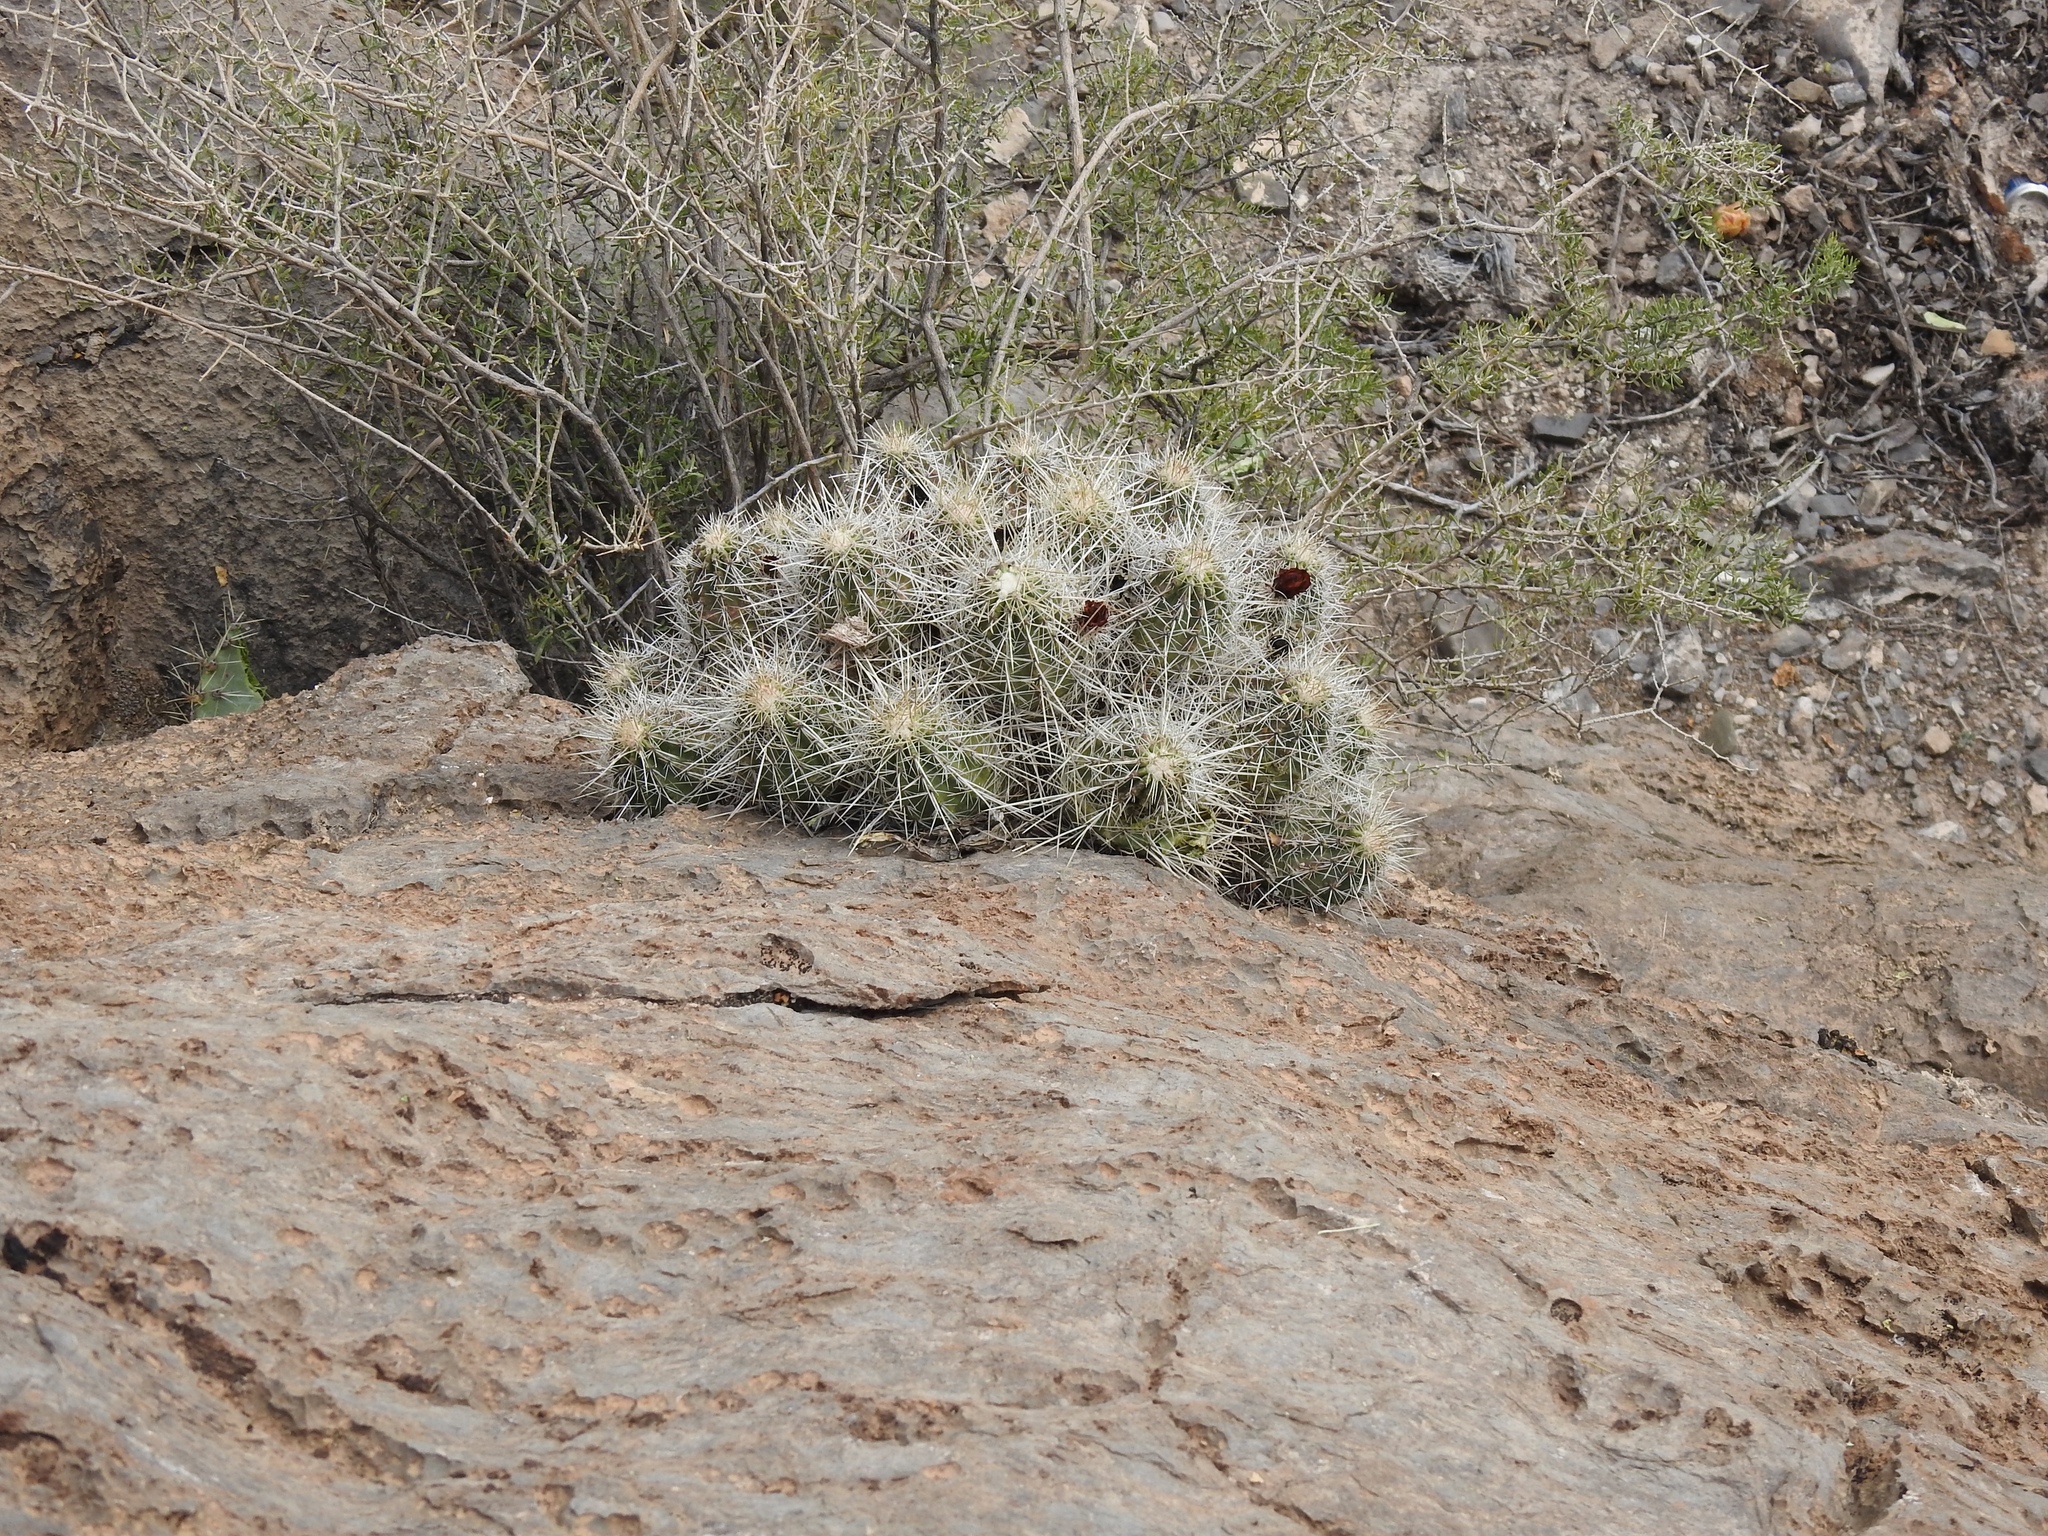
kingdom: Plantae
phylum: Tracheophyta
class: Magnoliopsida
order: Caryophyllales
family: Cactaceae
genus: Echinocereus
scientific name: Echinocereus stramineus
